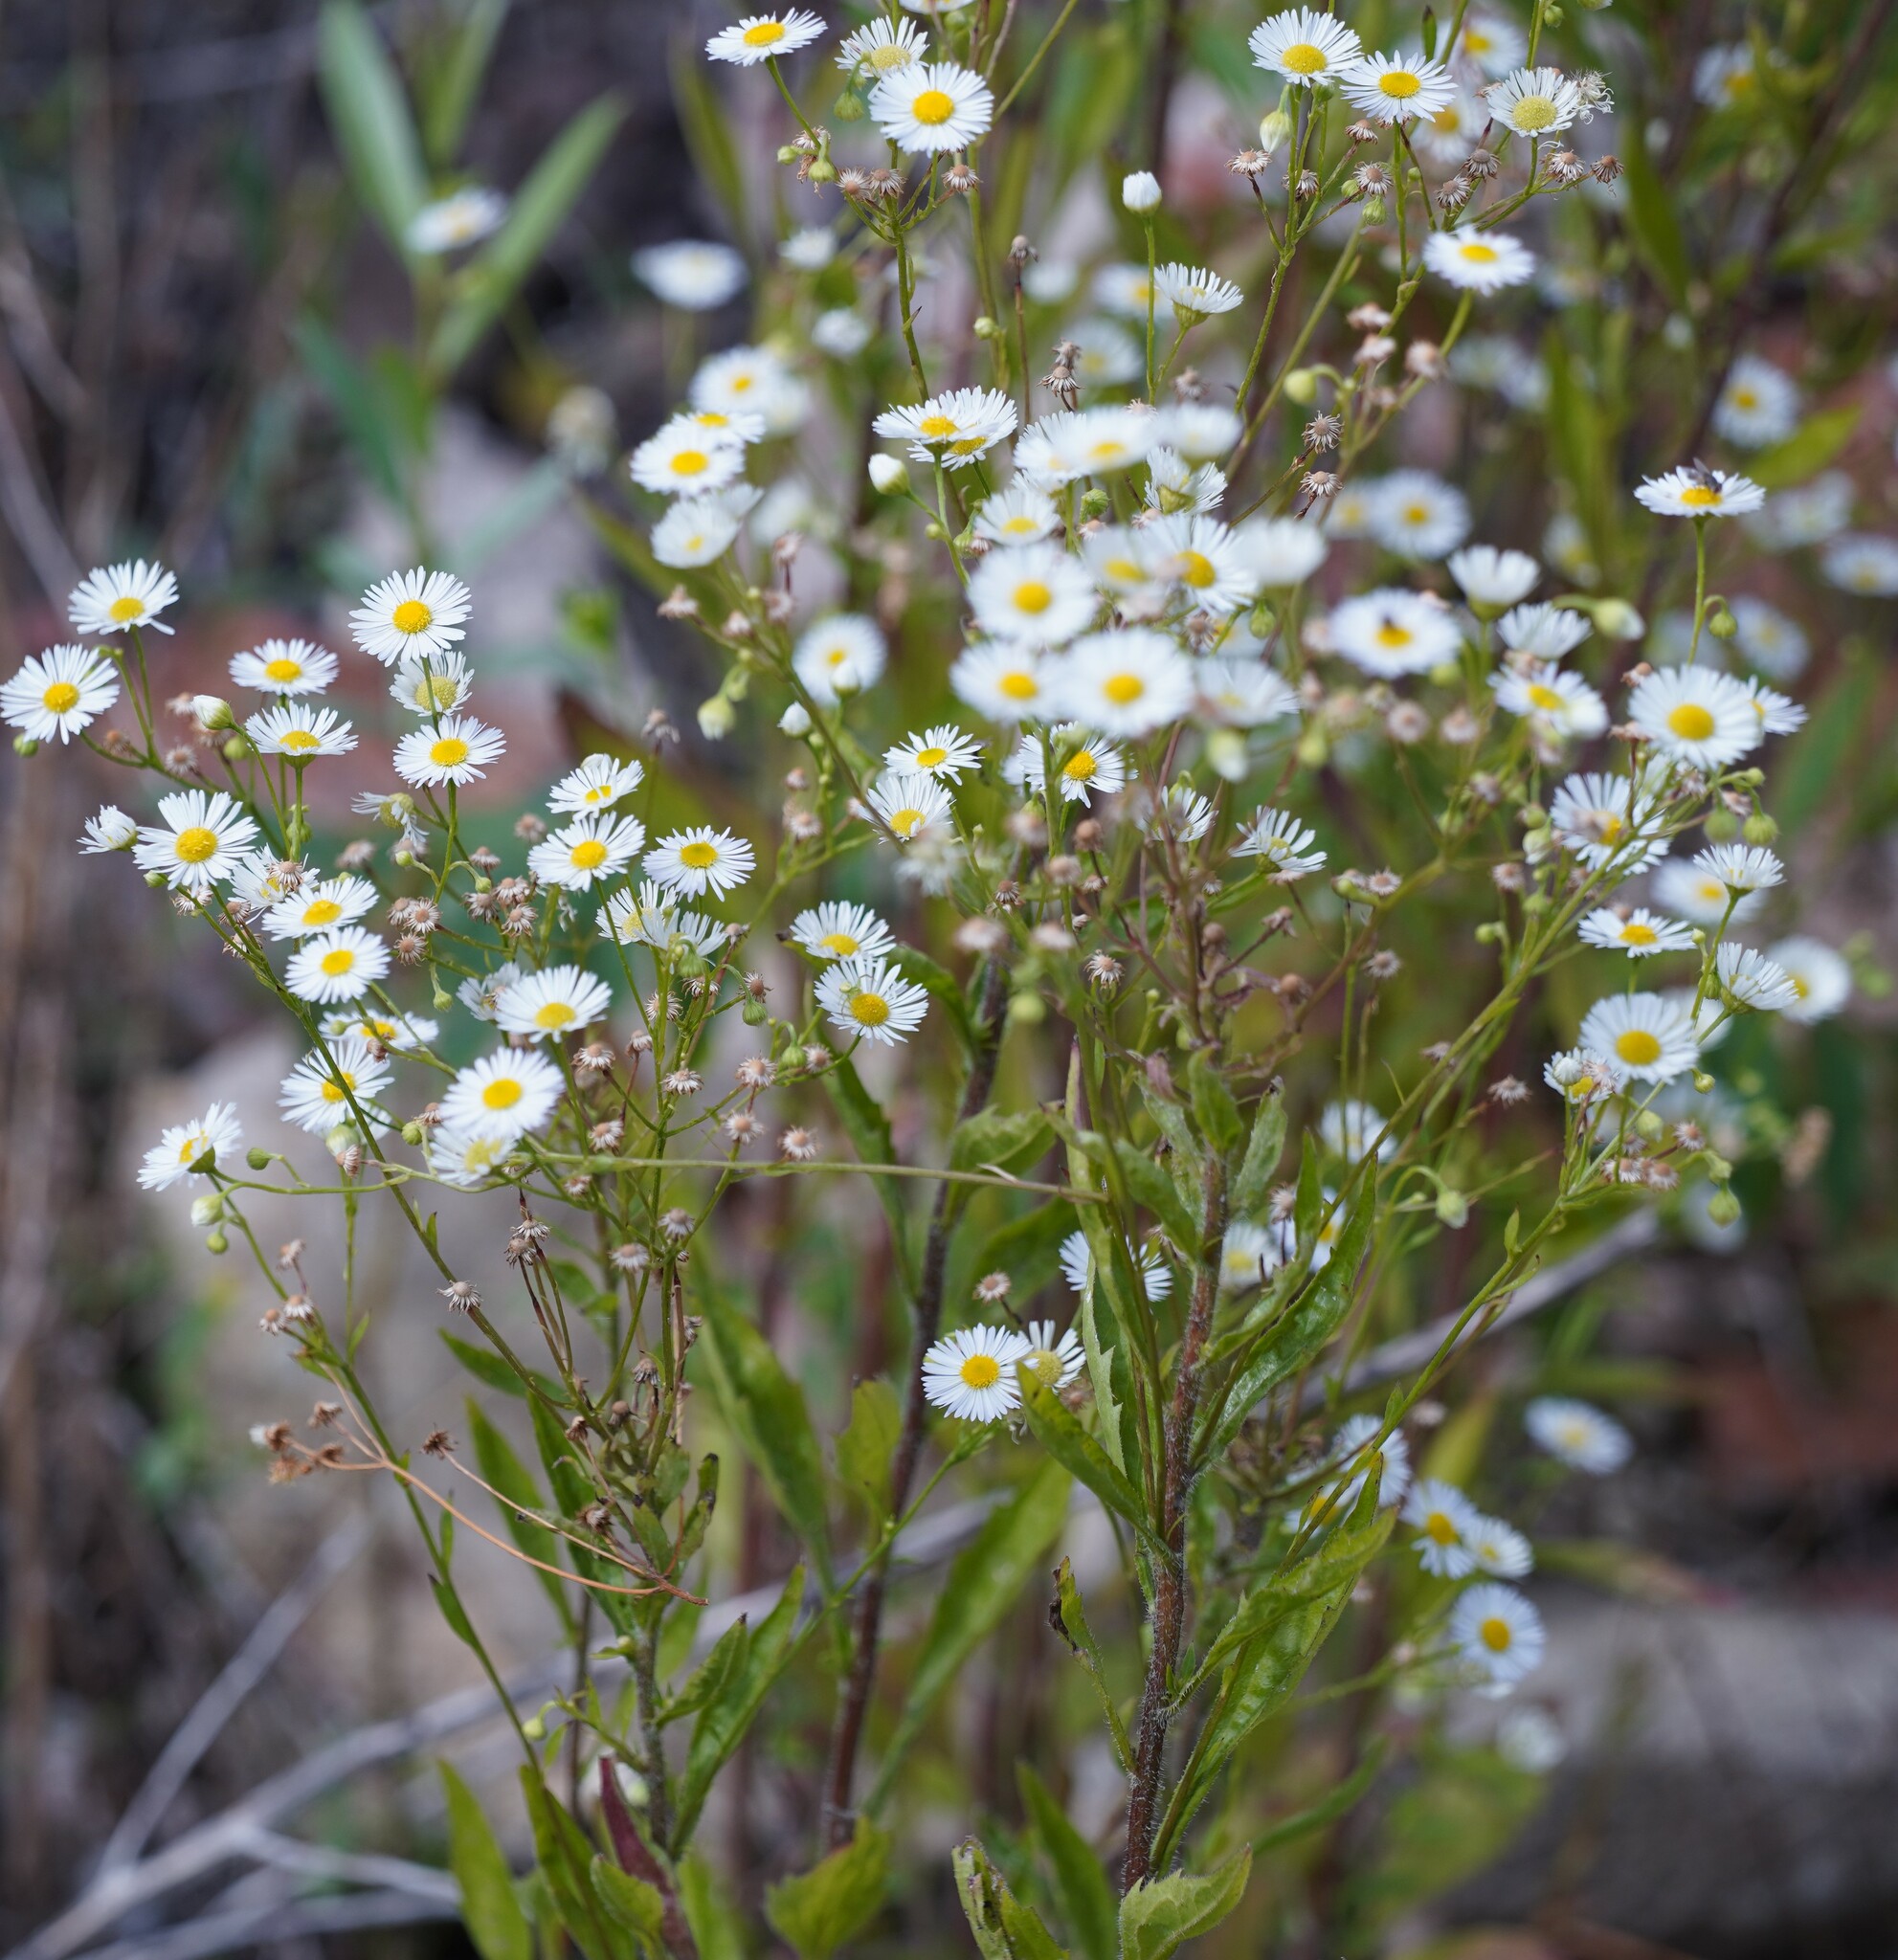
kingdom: Plantae
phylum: Tracheophyta
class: Magnoliopsida
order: Asterales
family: Asteraceae
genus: Erigeron
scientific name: Erigeron annuus
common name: Tall fleabane
